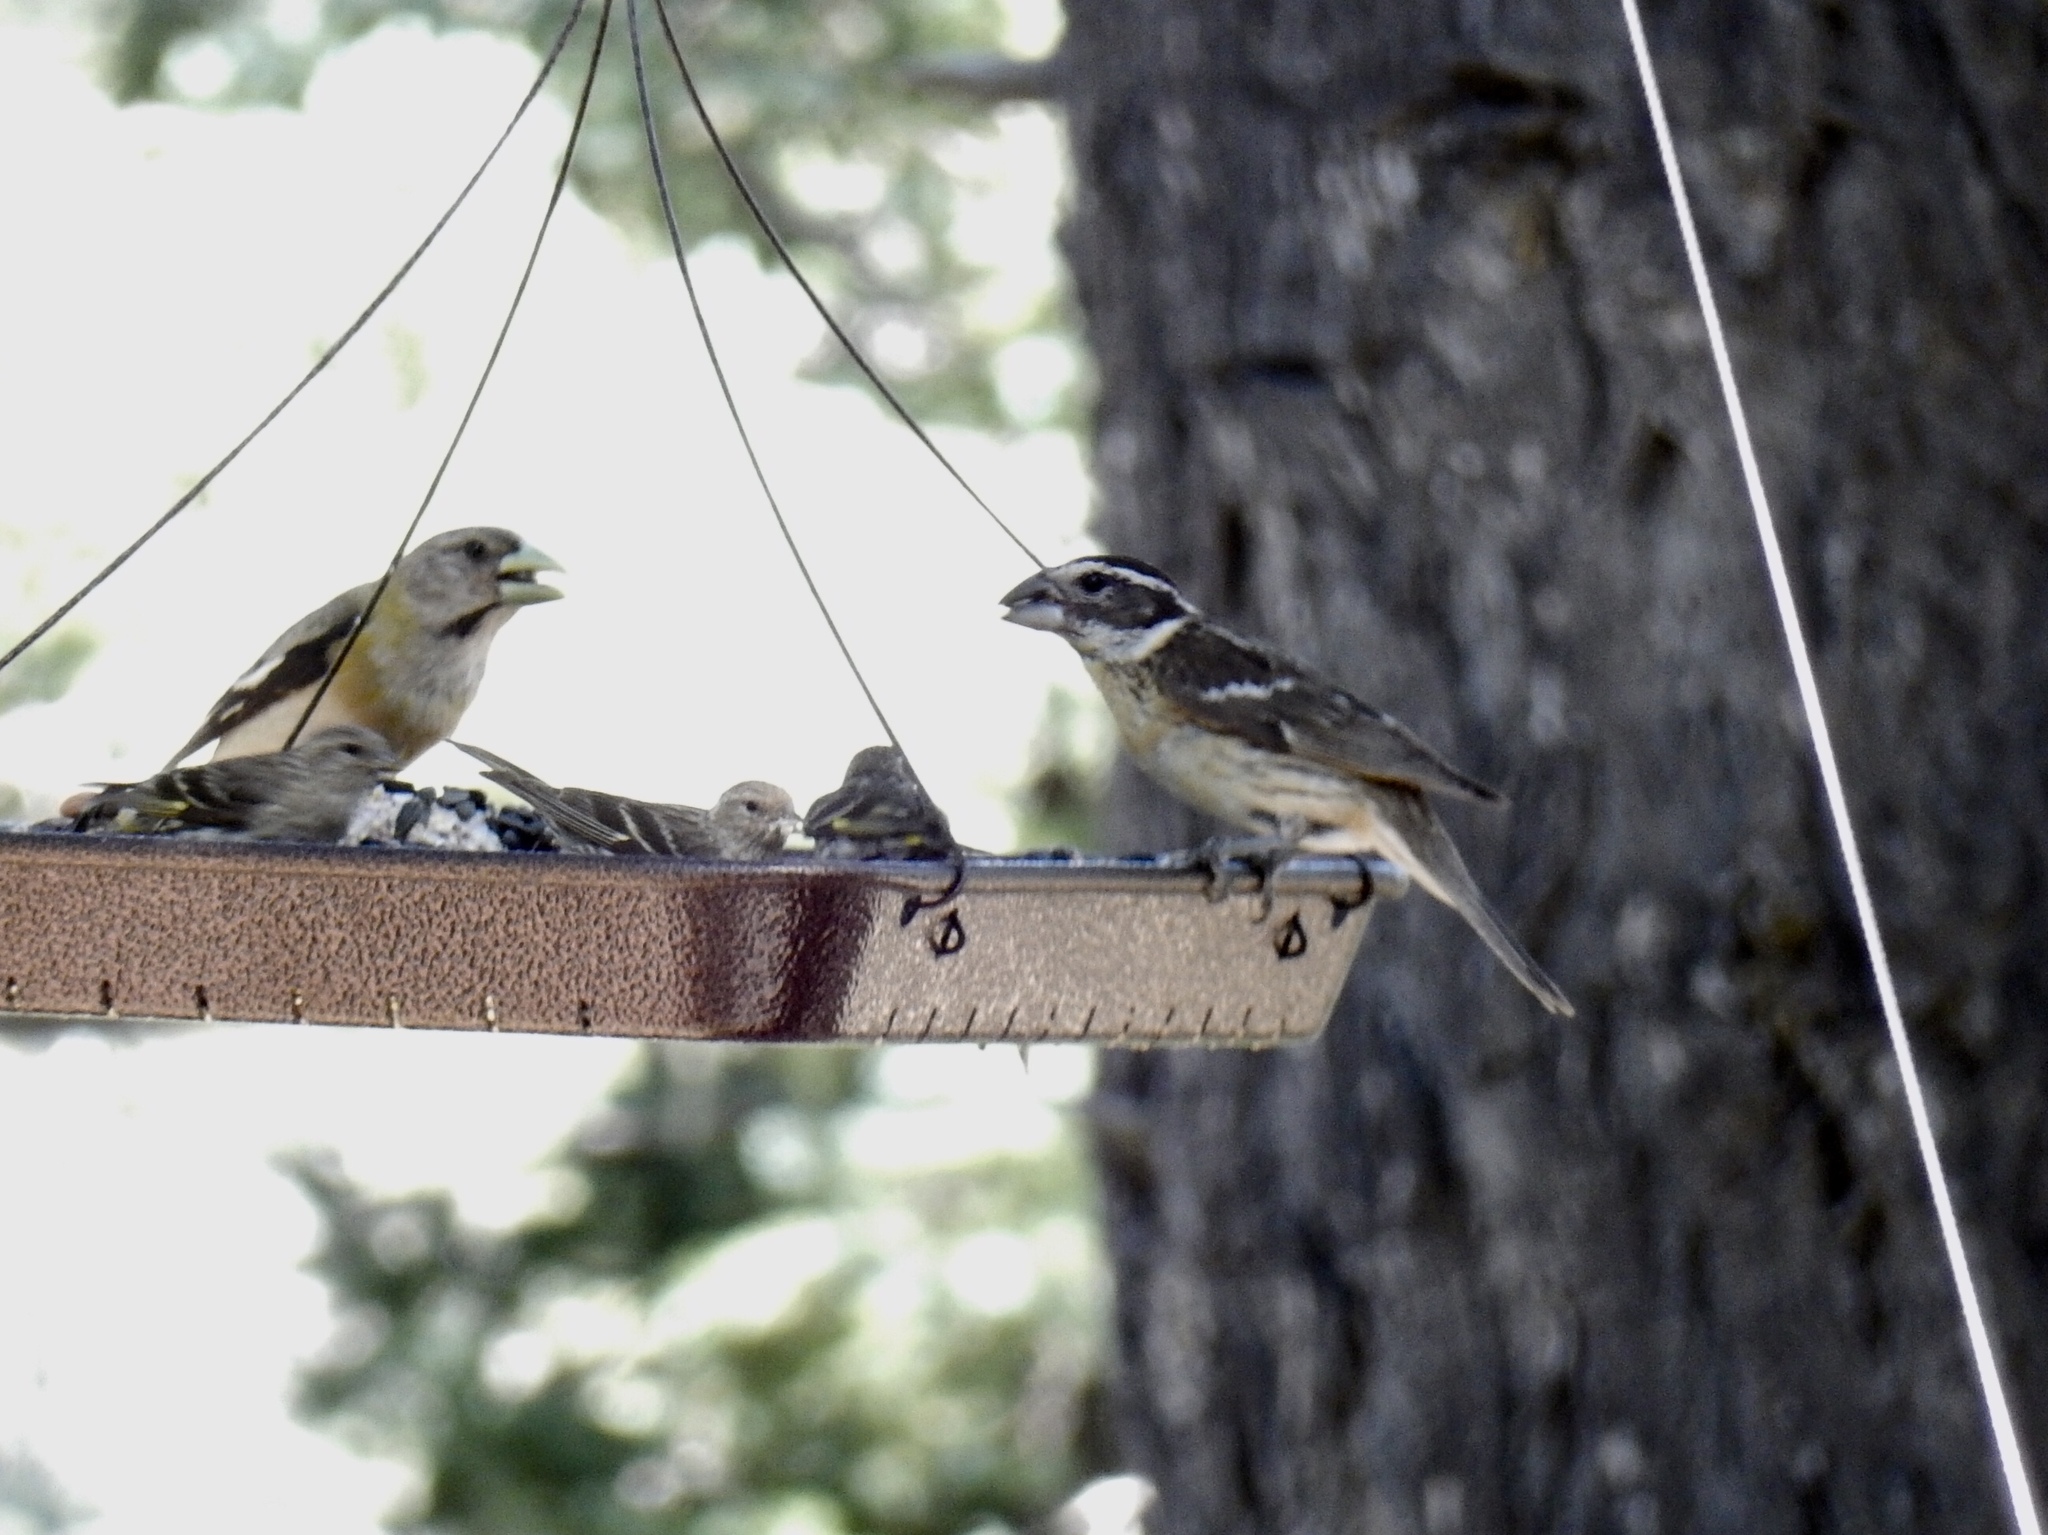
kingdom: Animalia
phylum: Chordata
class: Aves
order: Passeriformes
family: Fringillidae
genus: Hesperiphona
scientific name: Hesperiphona vespertina
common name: Evening grosbeak
